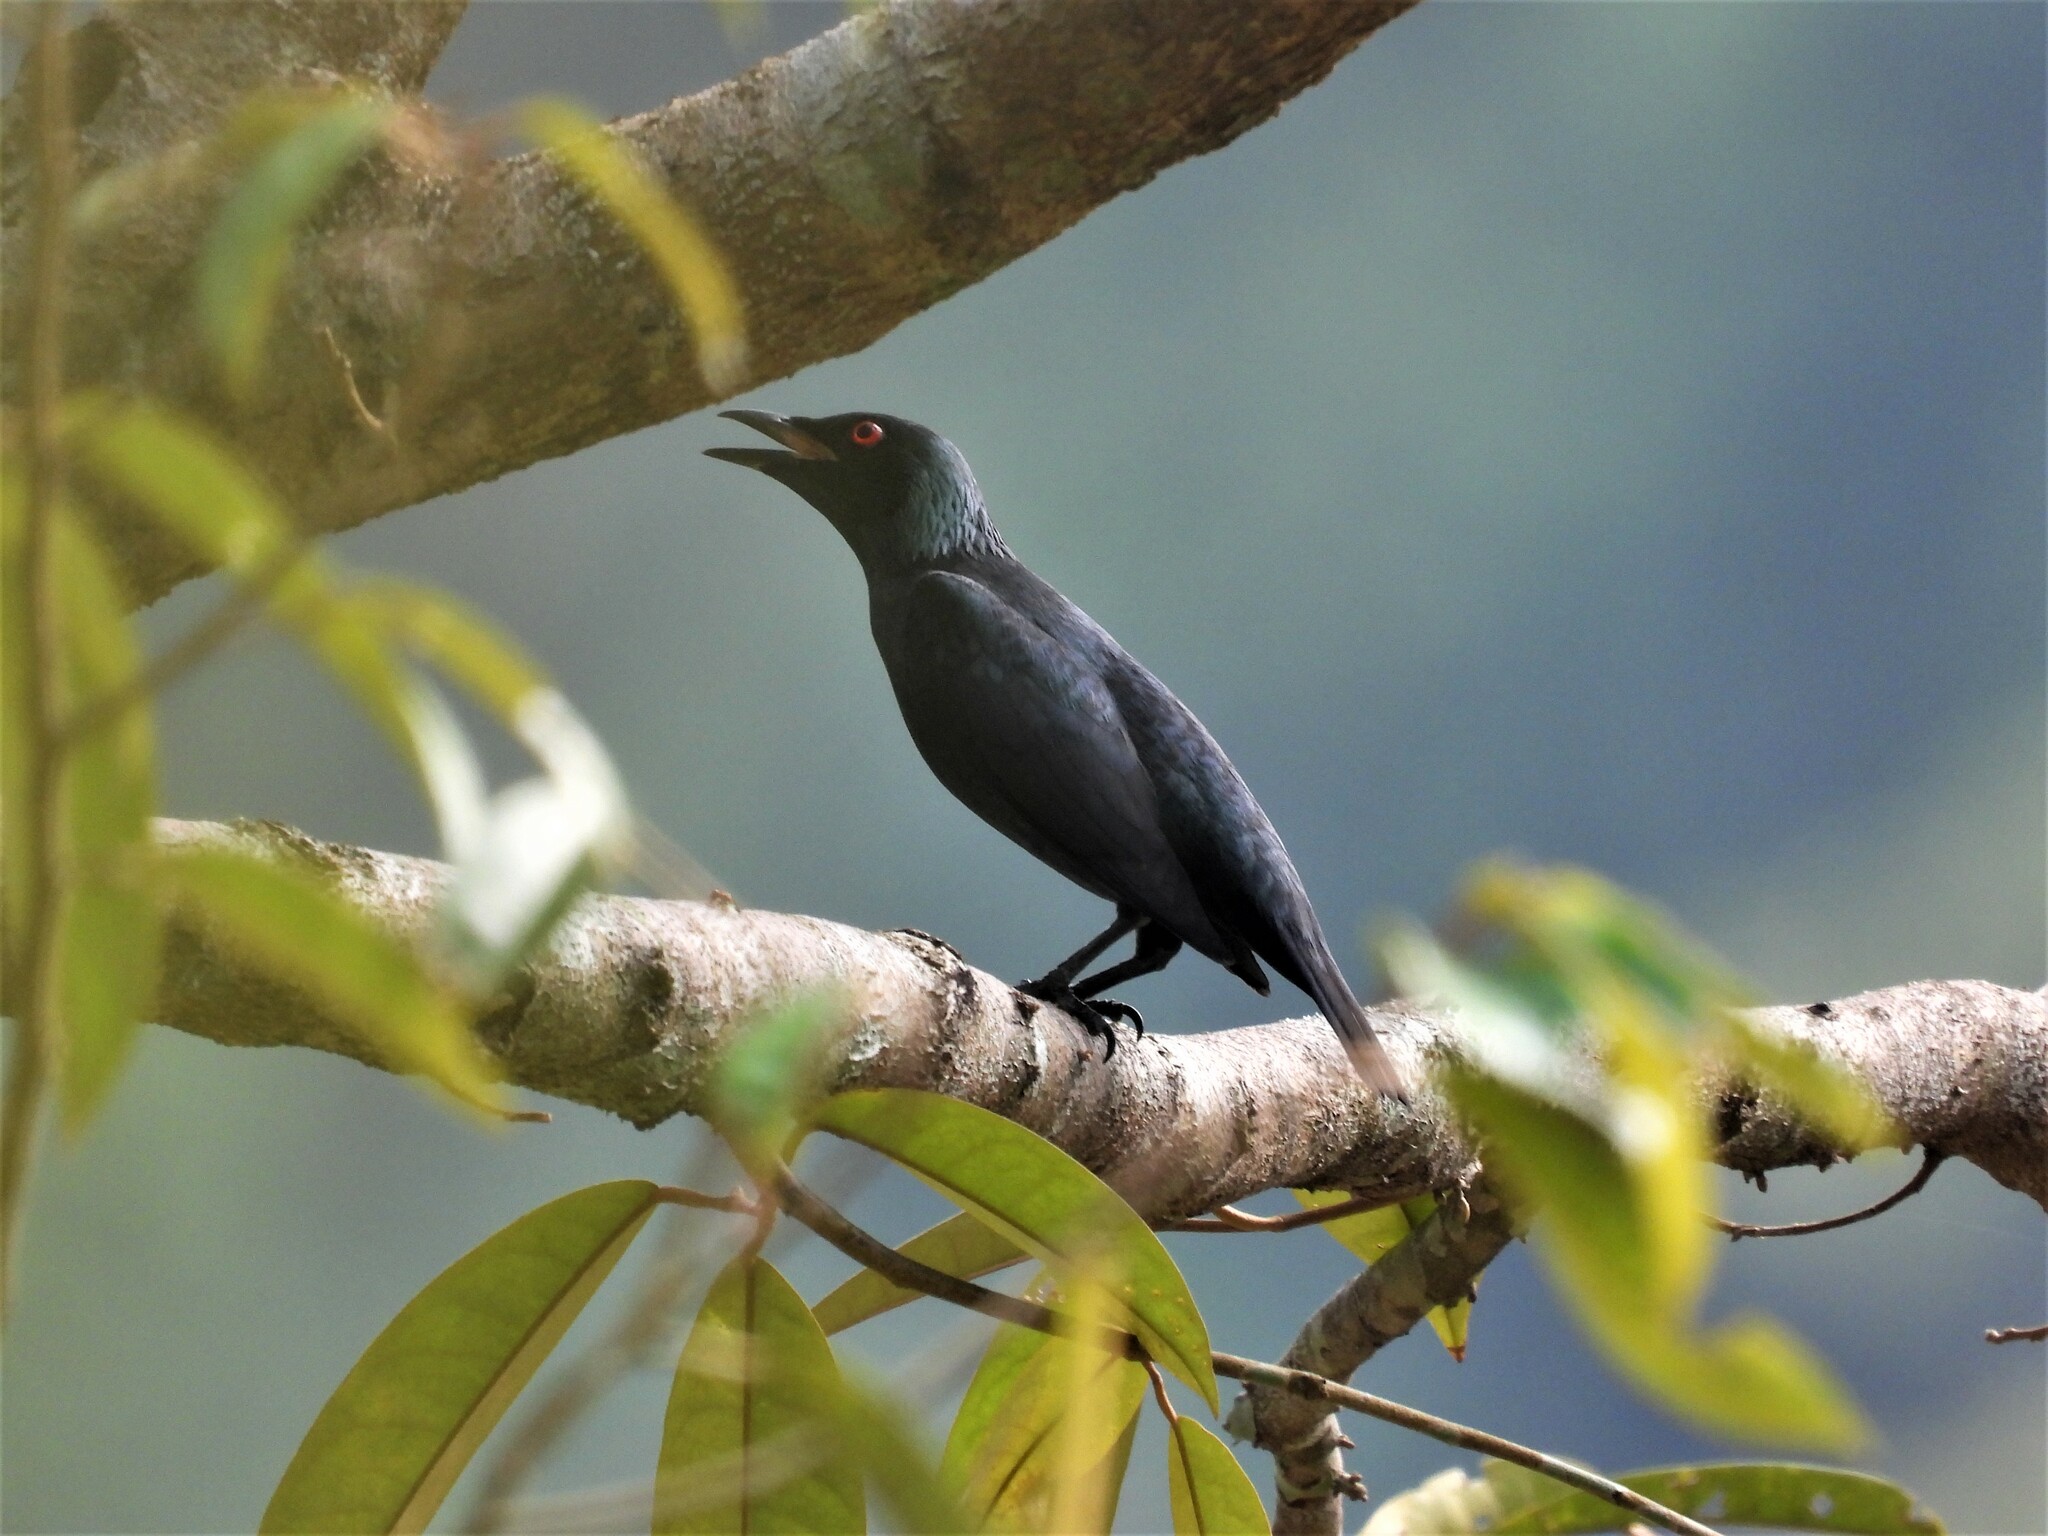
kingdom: Animalia
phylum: Chordata
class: Aves
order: Passeriformes
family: Sturnidae
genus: Aplonis
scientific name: Aplonis panayensis
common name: Asian glossy starling
